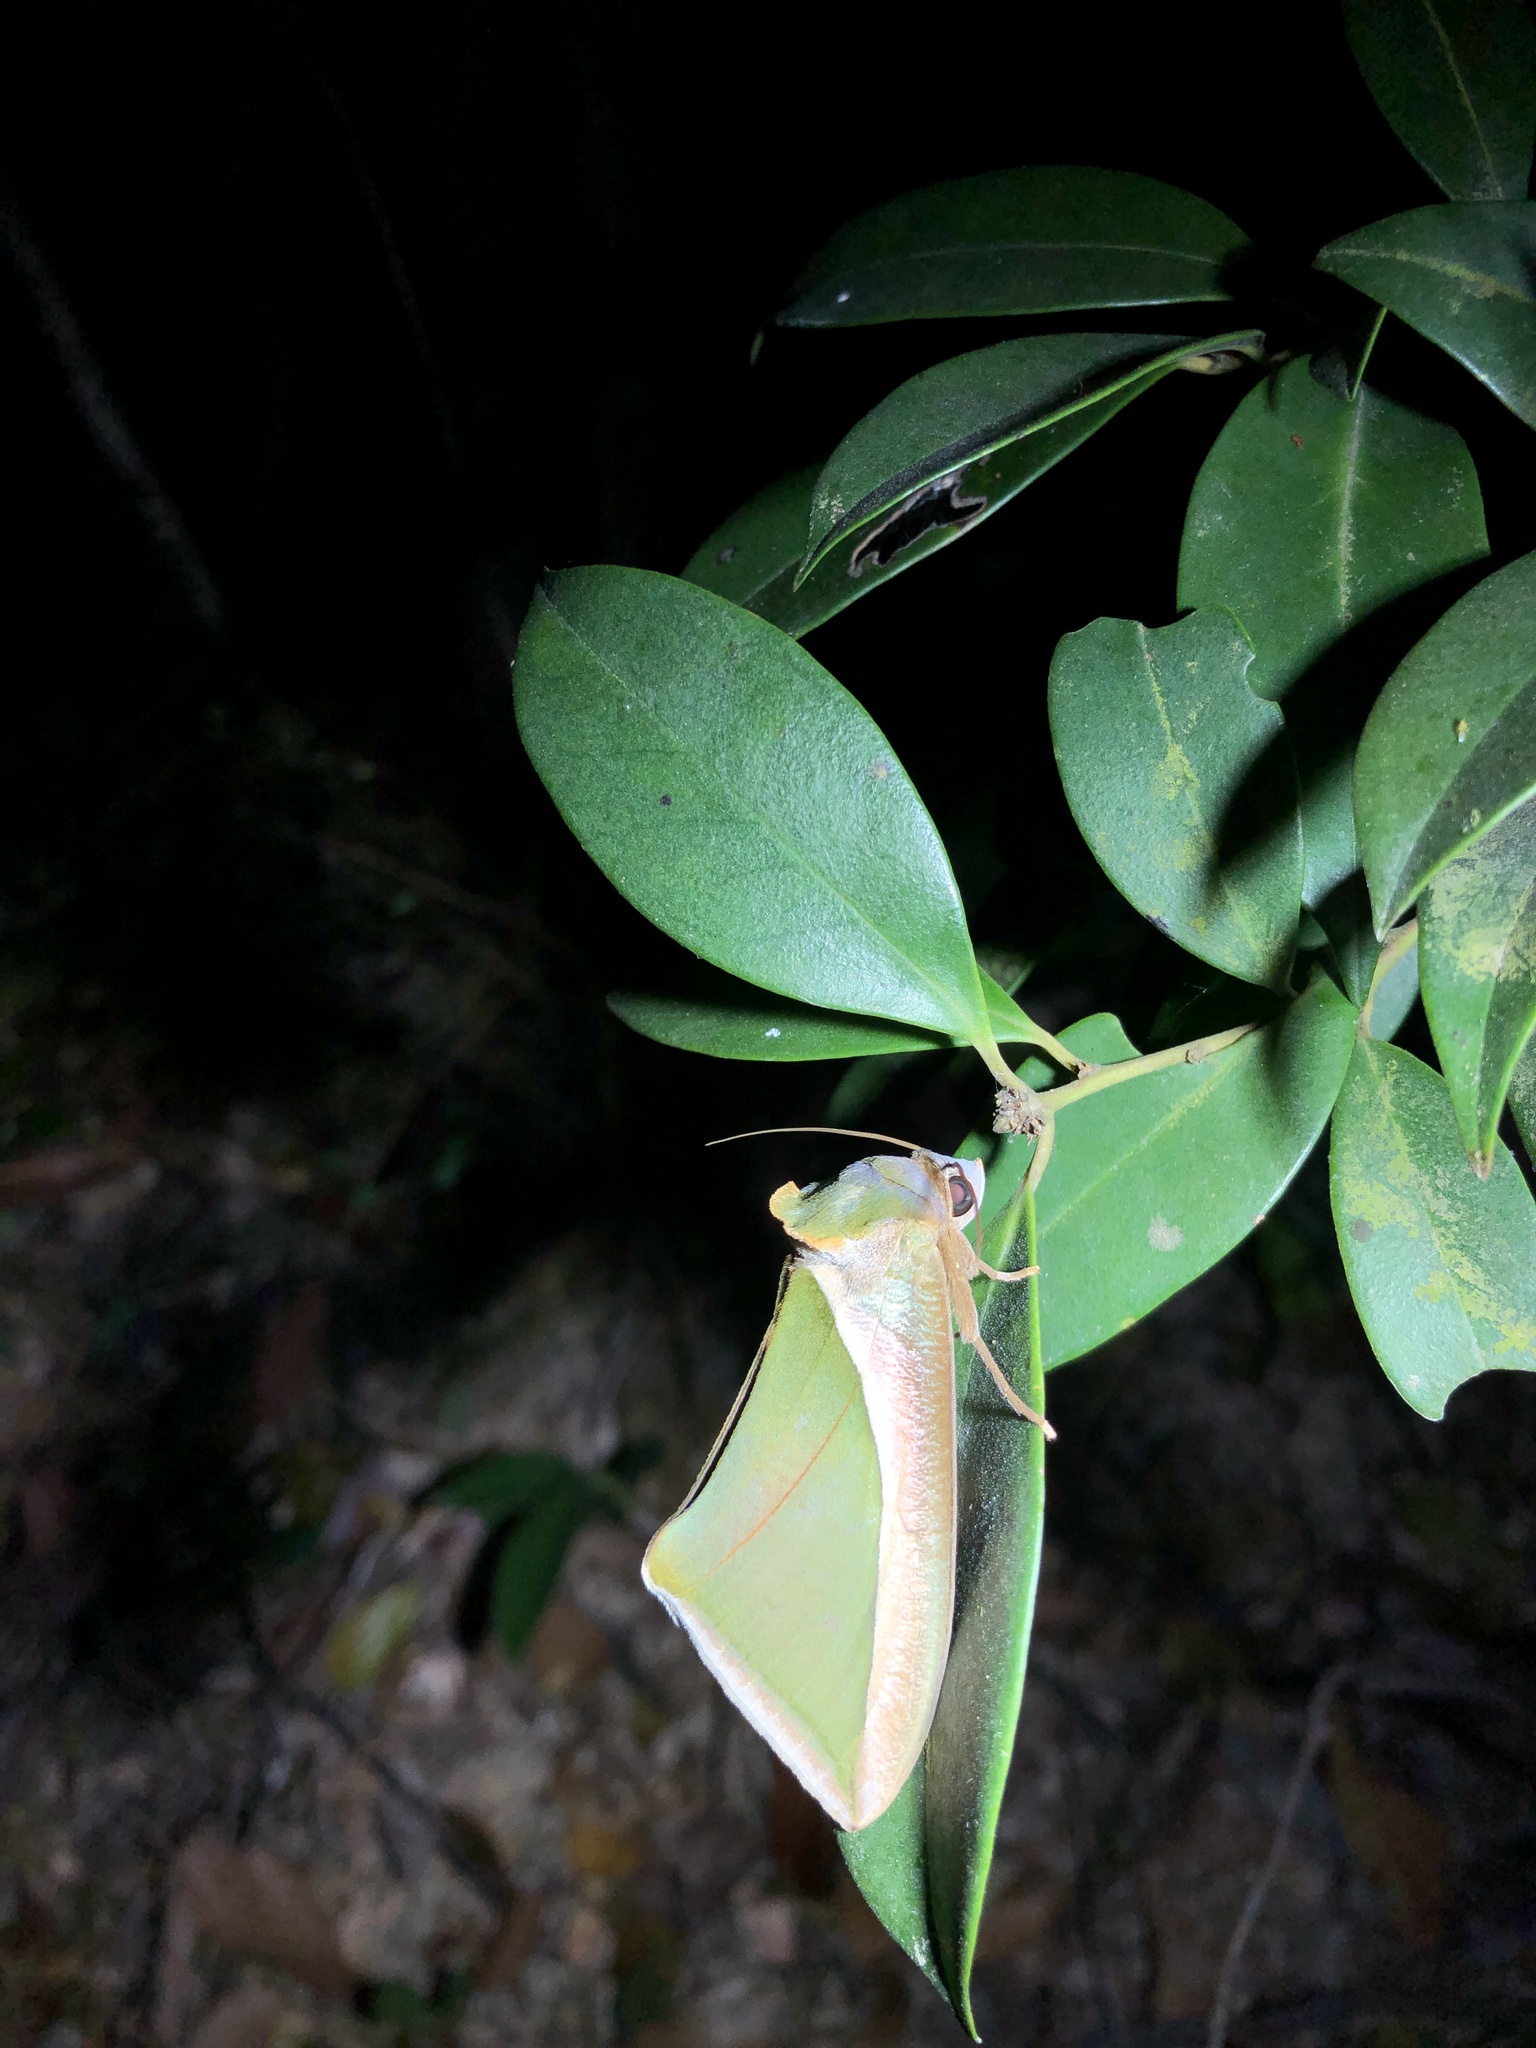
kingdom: Animalia
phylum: Arthropoda
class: Insecta
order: Lepidoptera
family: Erebidae
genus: Eudocima
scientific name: Eudocima salaminia
